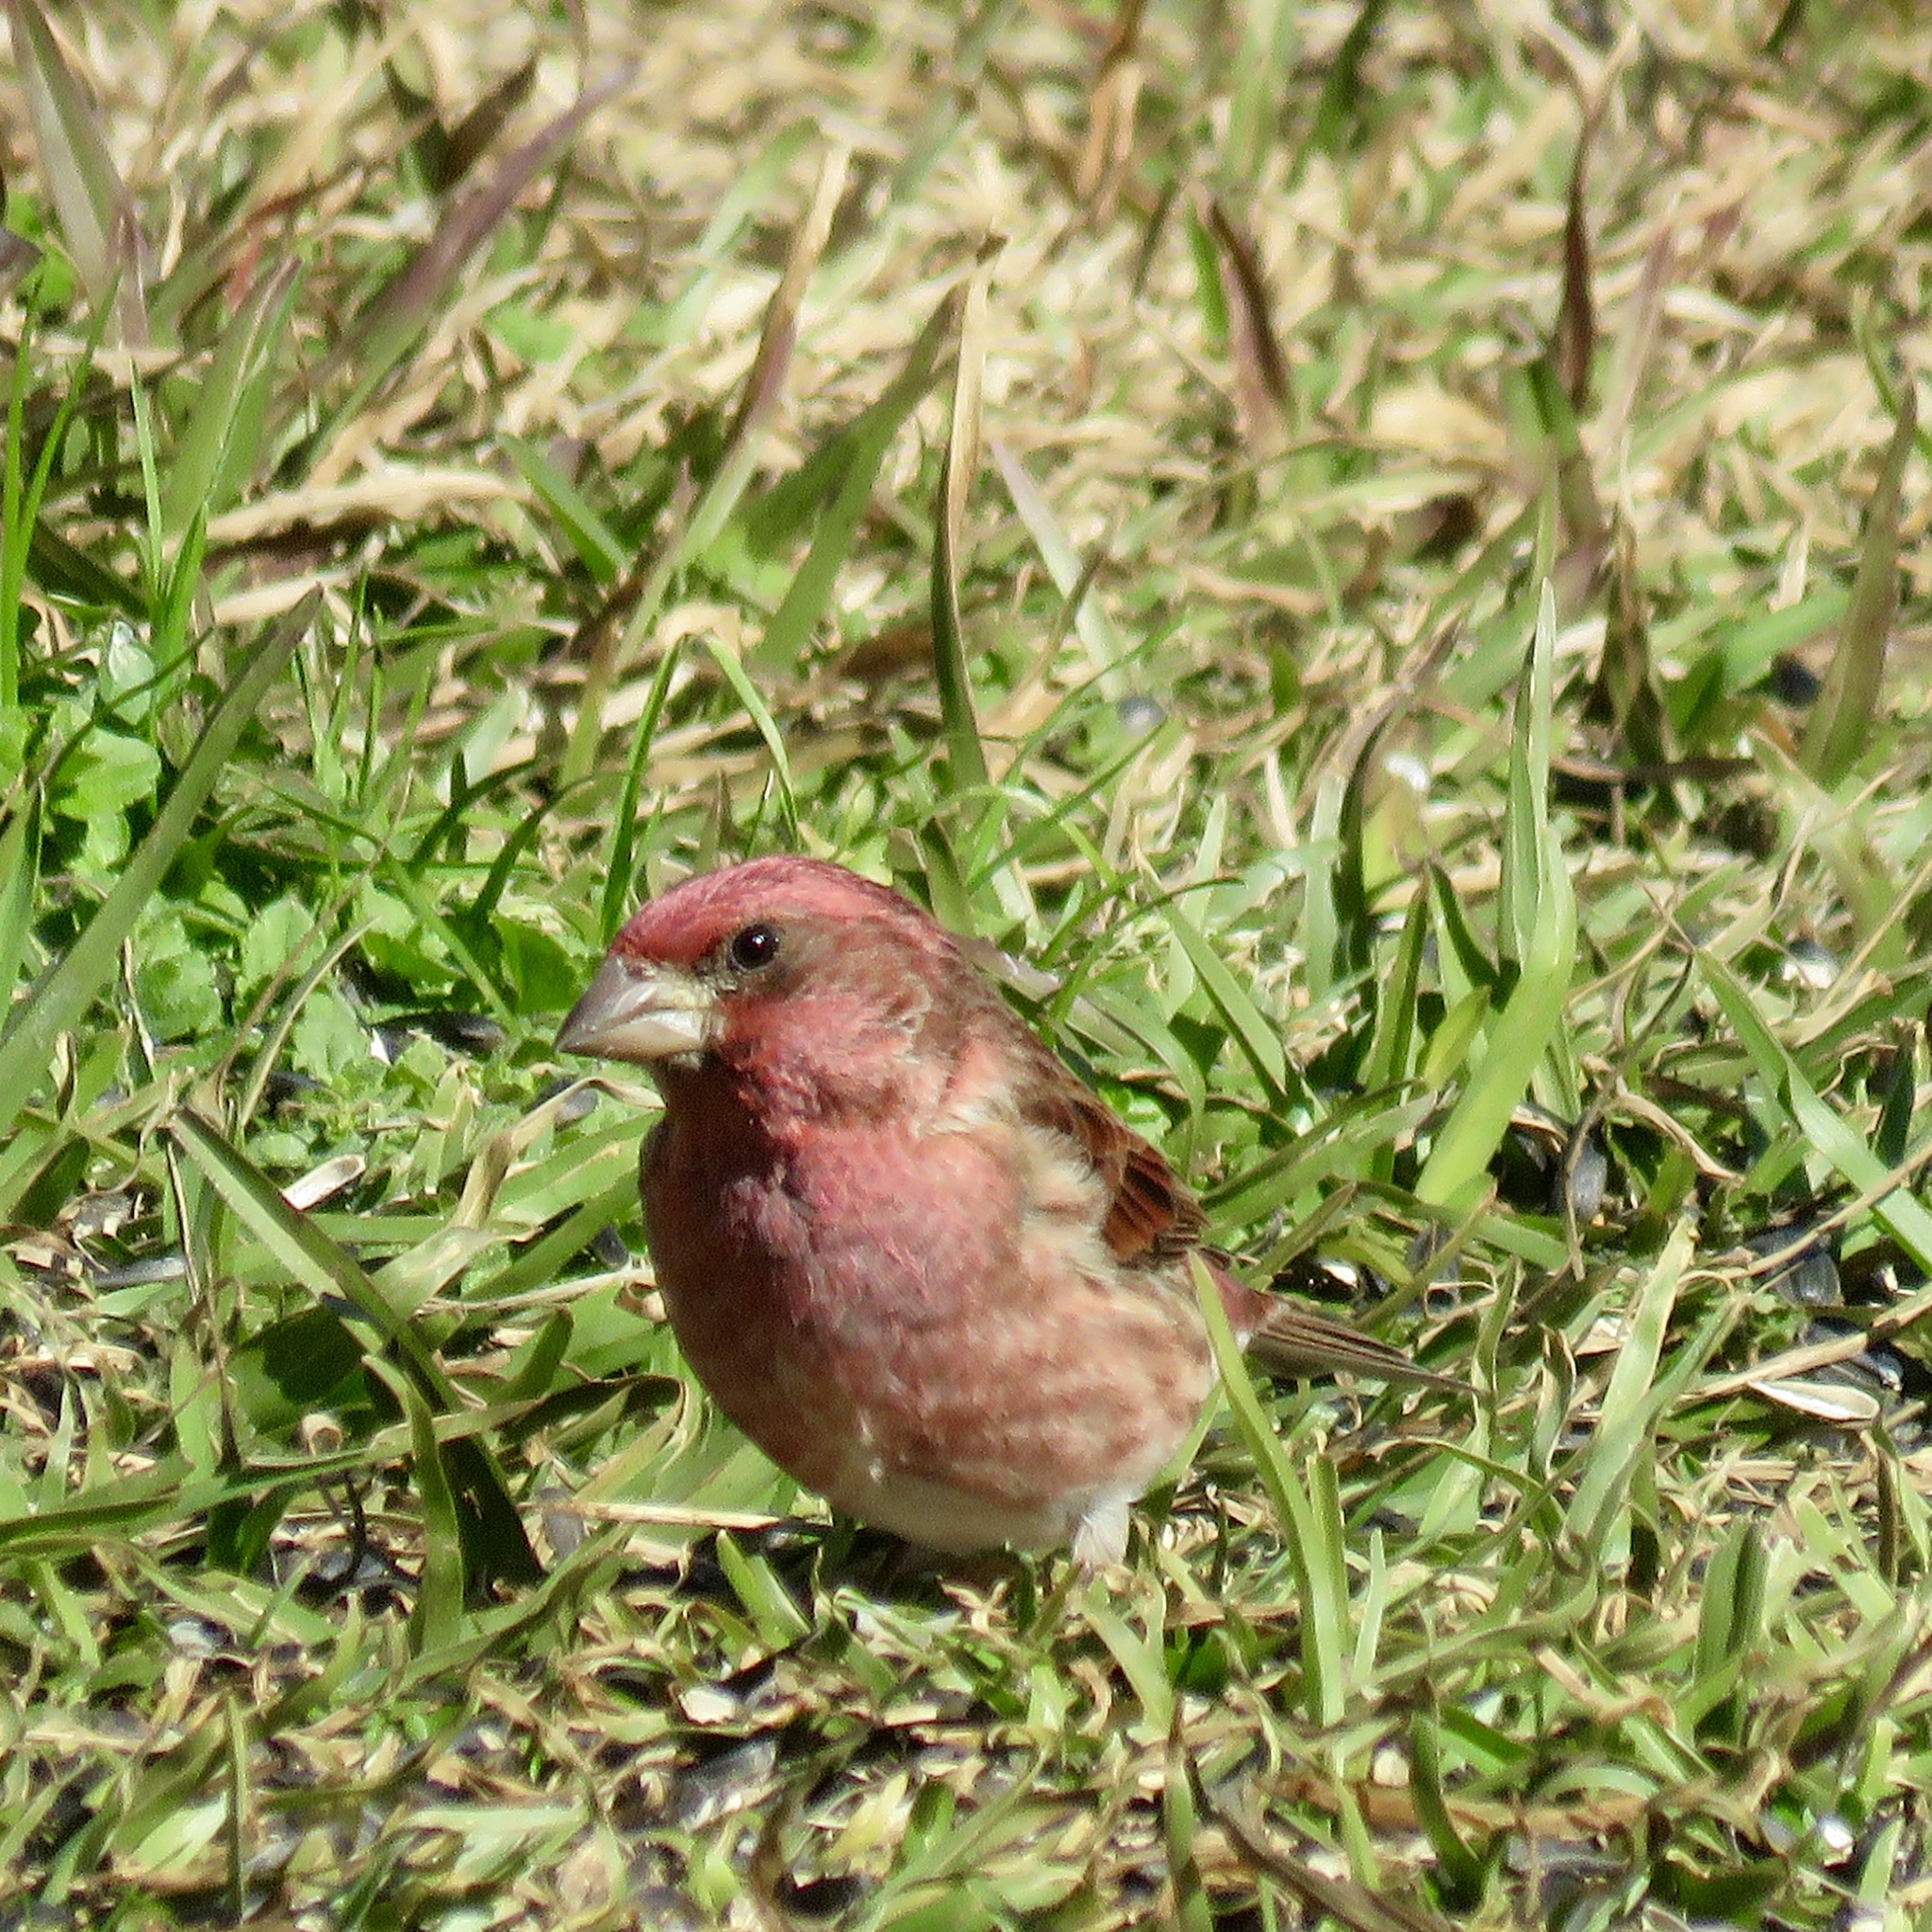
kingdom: Animalia
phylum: Chordata
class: Aves
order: Passeriformes
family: Fringillidae
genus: Haemorhous
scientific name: Haemorhous purpureus
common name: Purple finch
